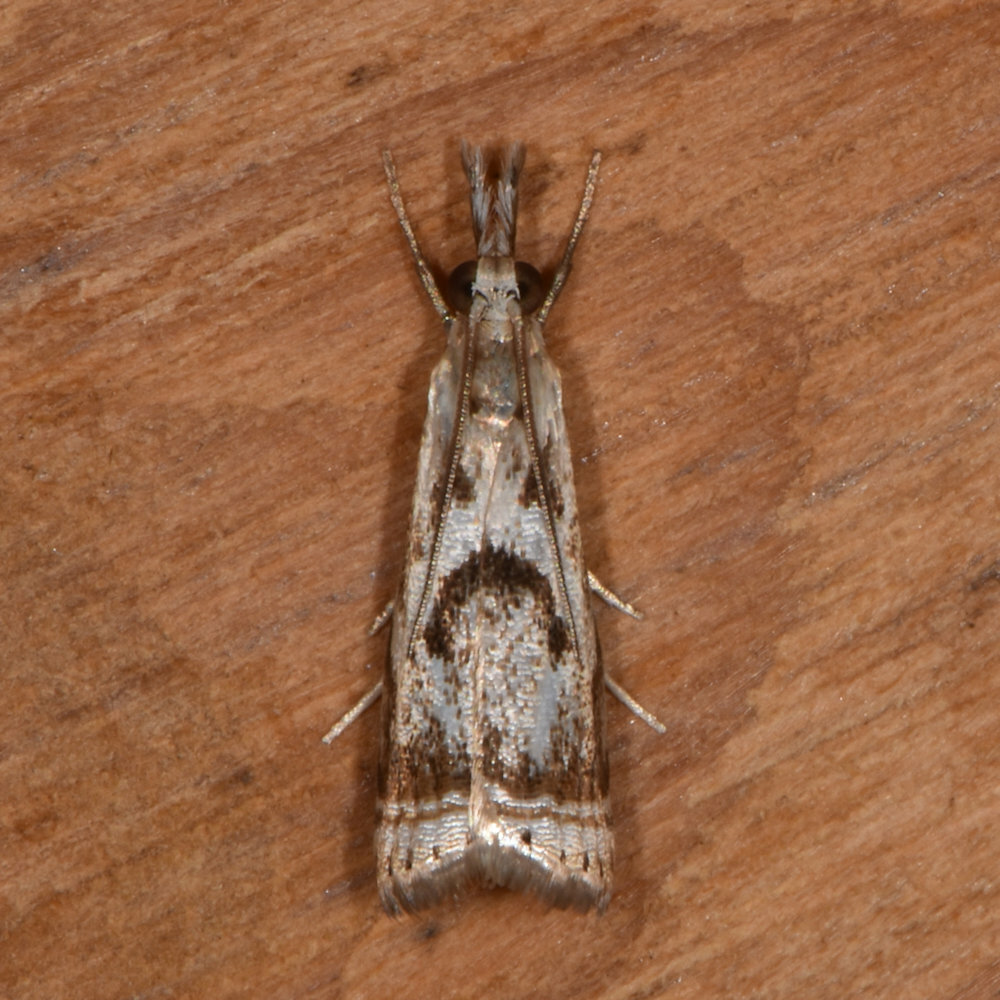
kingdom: Animalia
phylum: Arthropoda
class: Insecta
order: Lepidoptera
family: Crambidae
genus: Microcrambus
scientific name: Microcrambus elegans
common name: Elegant grass-veneer
